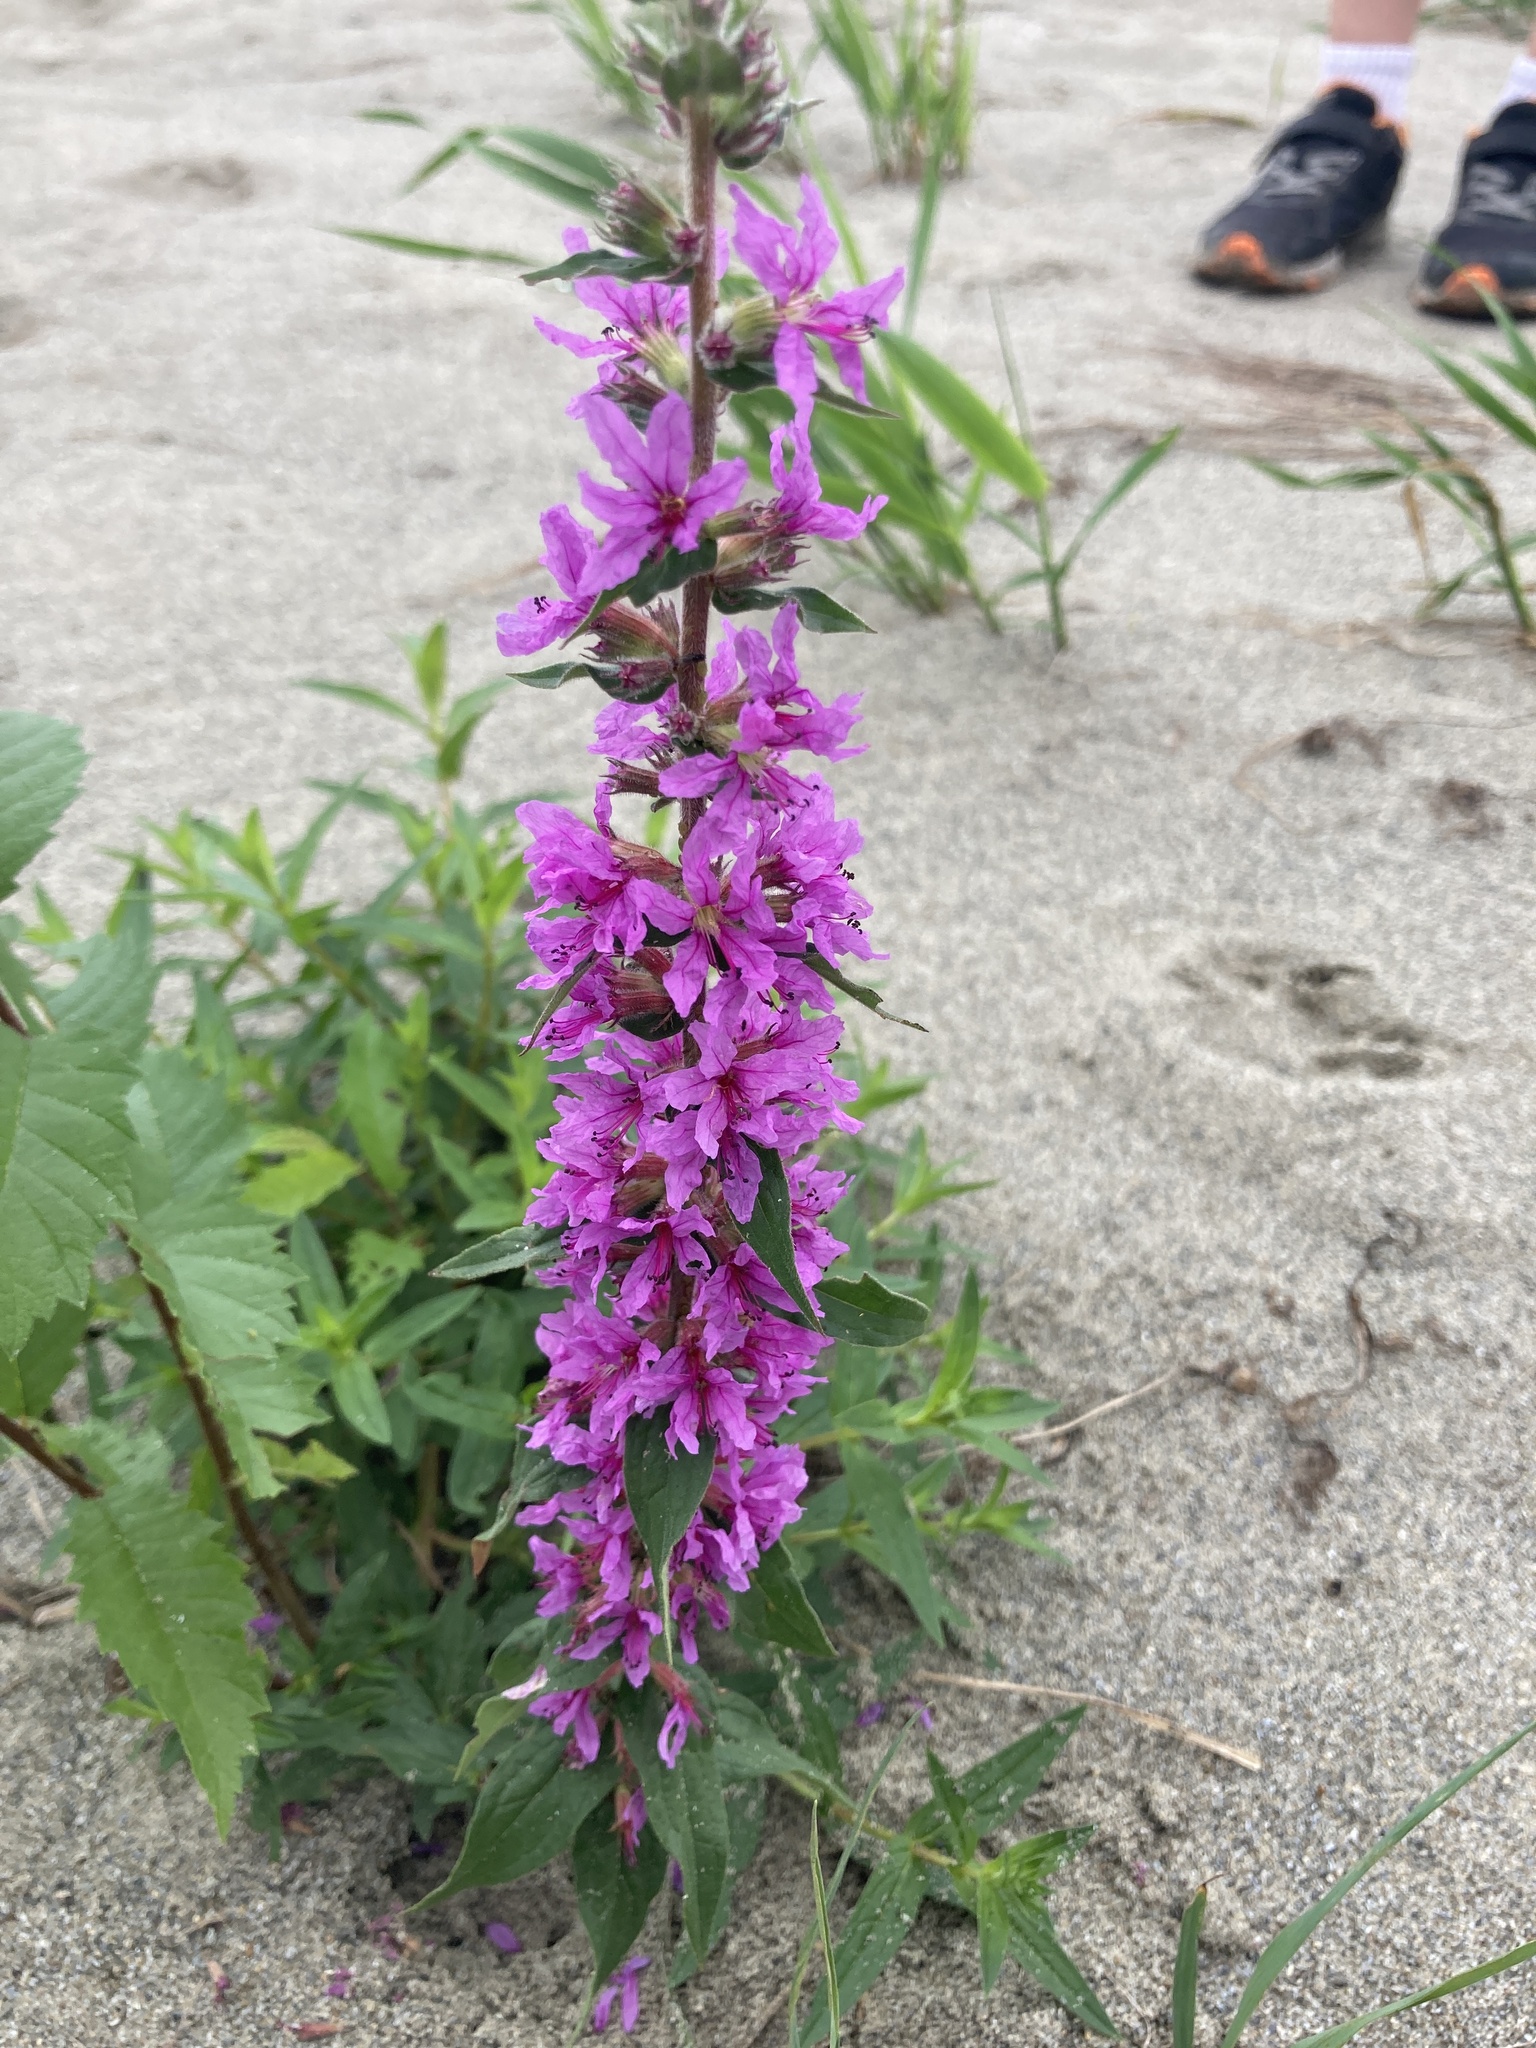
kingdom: Plantae
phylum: Tracheophyta
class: Magnoliopsida
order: Myrtales
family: Lythraceae
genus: Lythrum
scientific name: Lythrum salicaria
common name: Purple loosestrife
